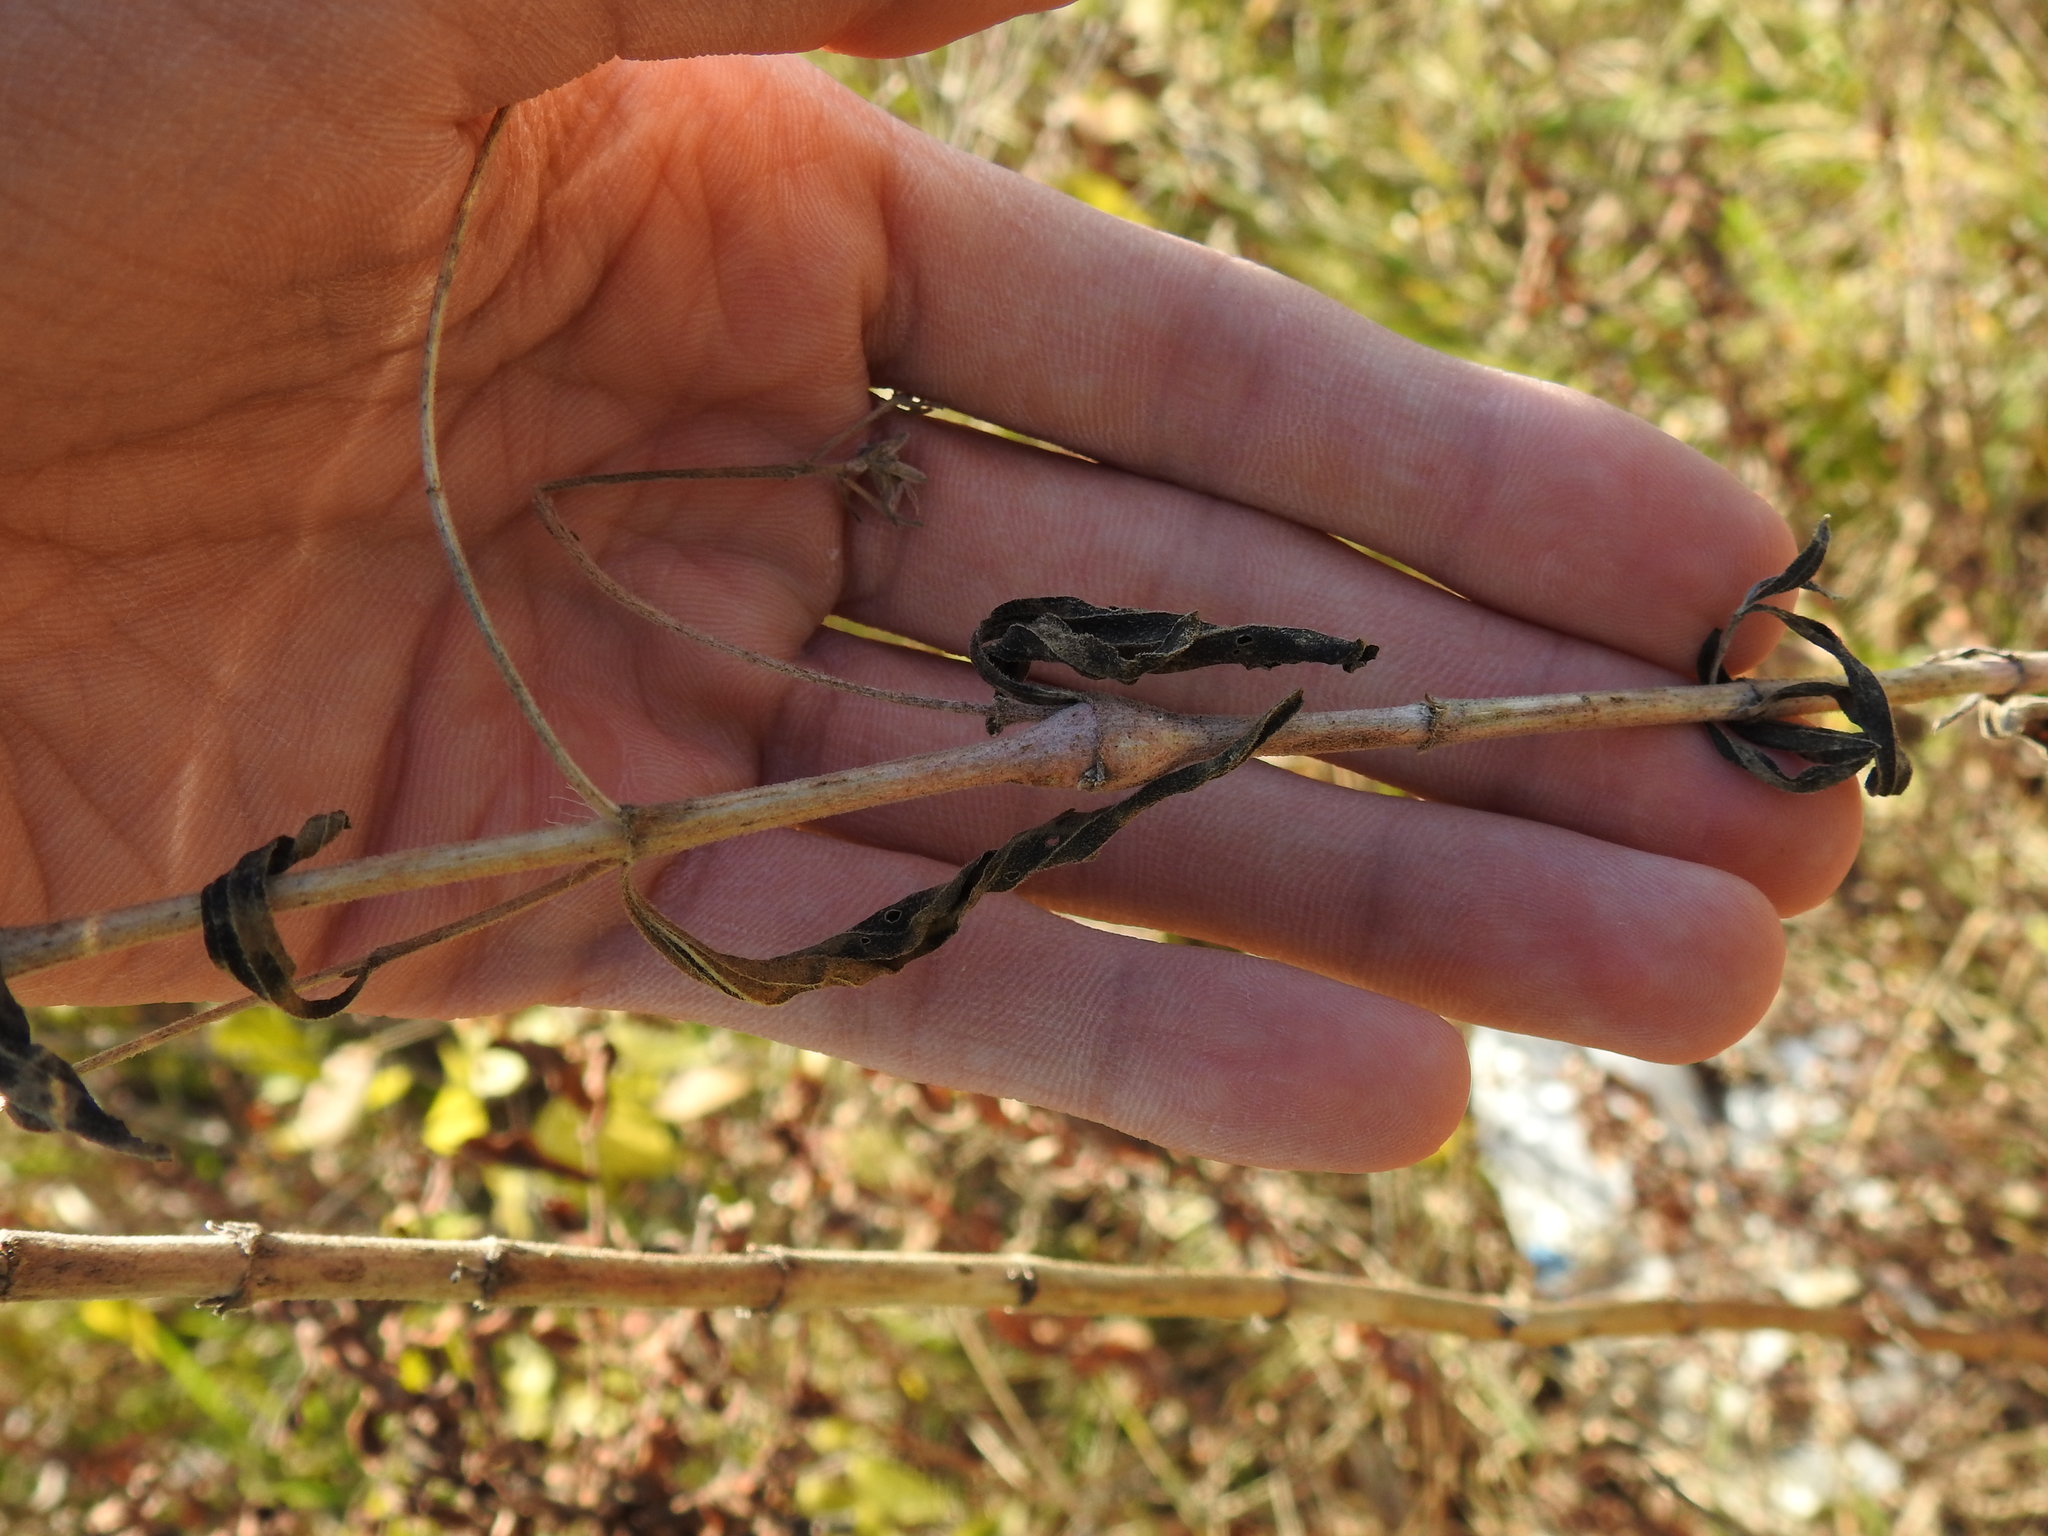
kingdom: Animalia
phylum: Arthropoda
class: Insecta
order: Diptera
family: Cecidomyiidae
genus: Neolasioptera
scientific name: Neolasioptera perfoliata
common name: Boneset stem midge
